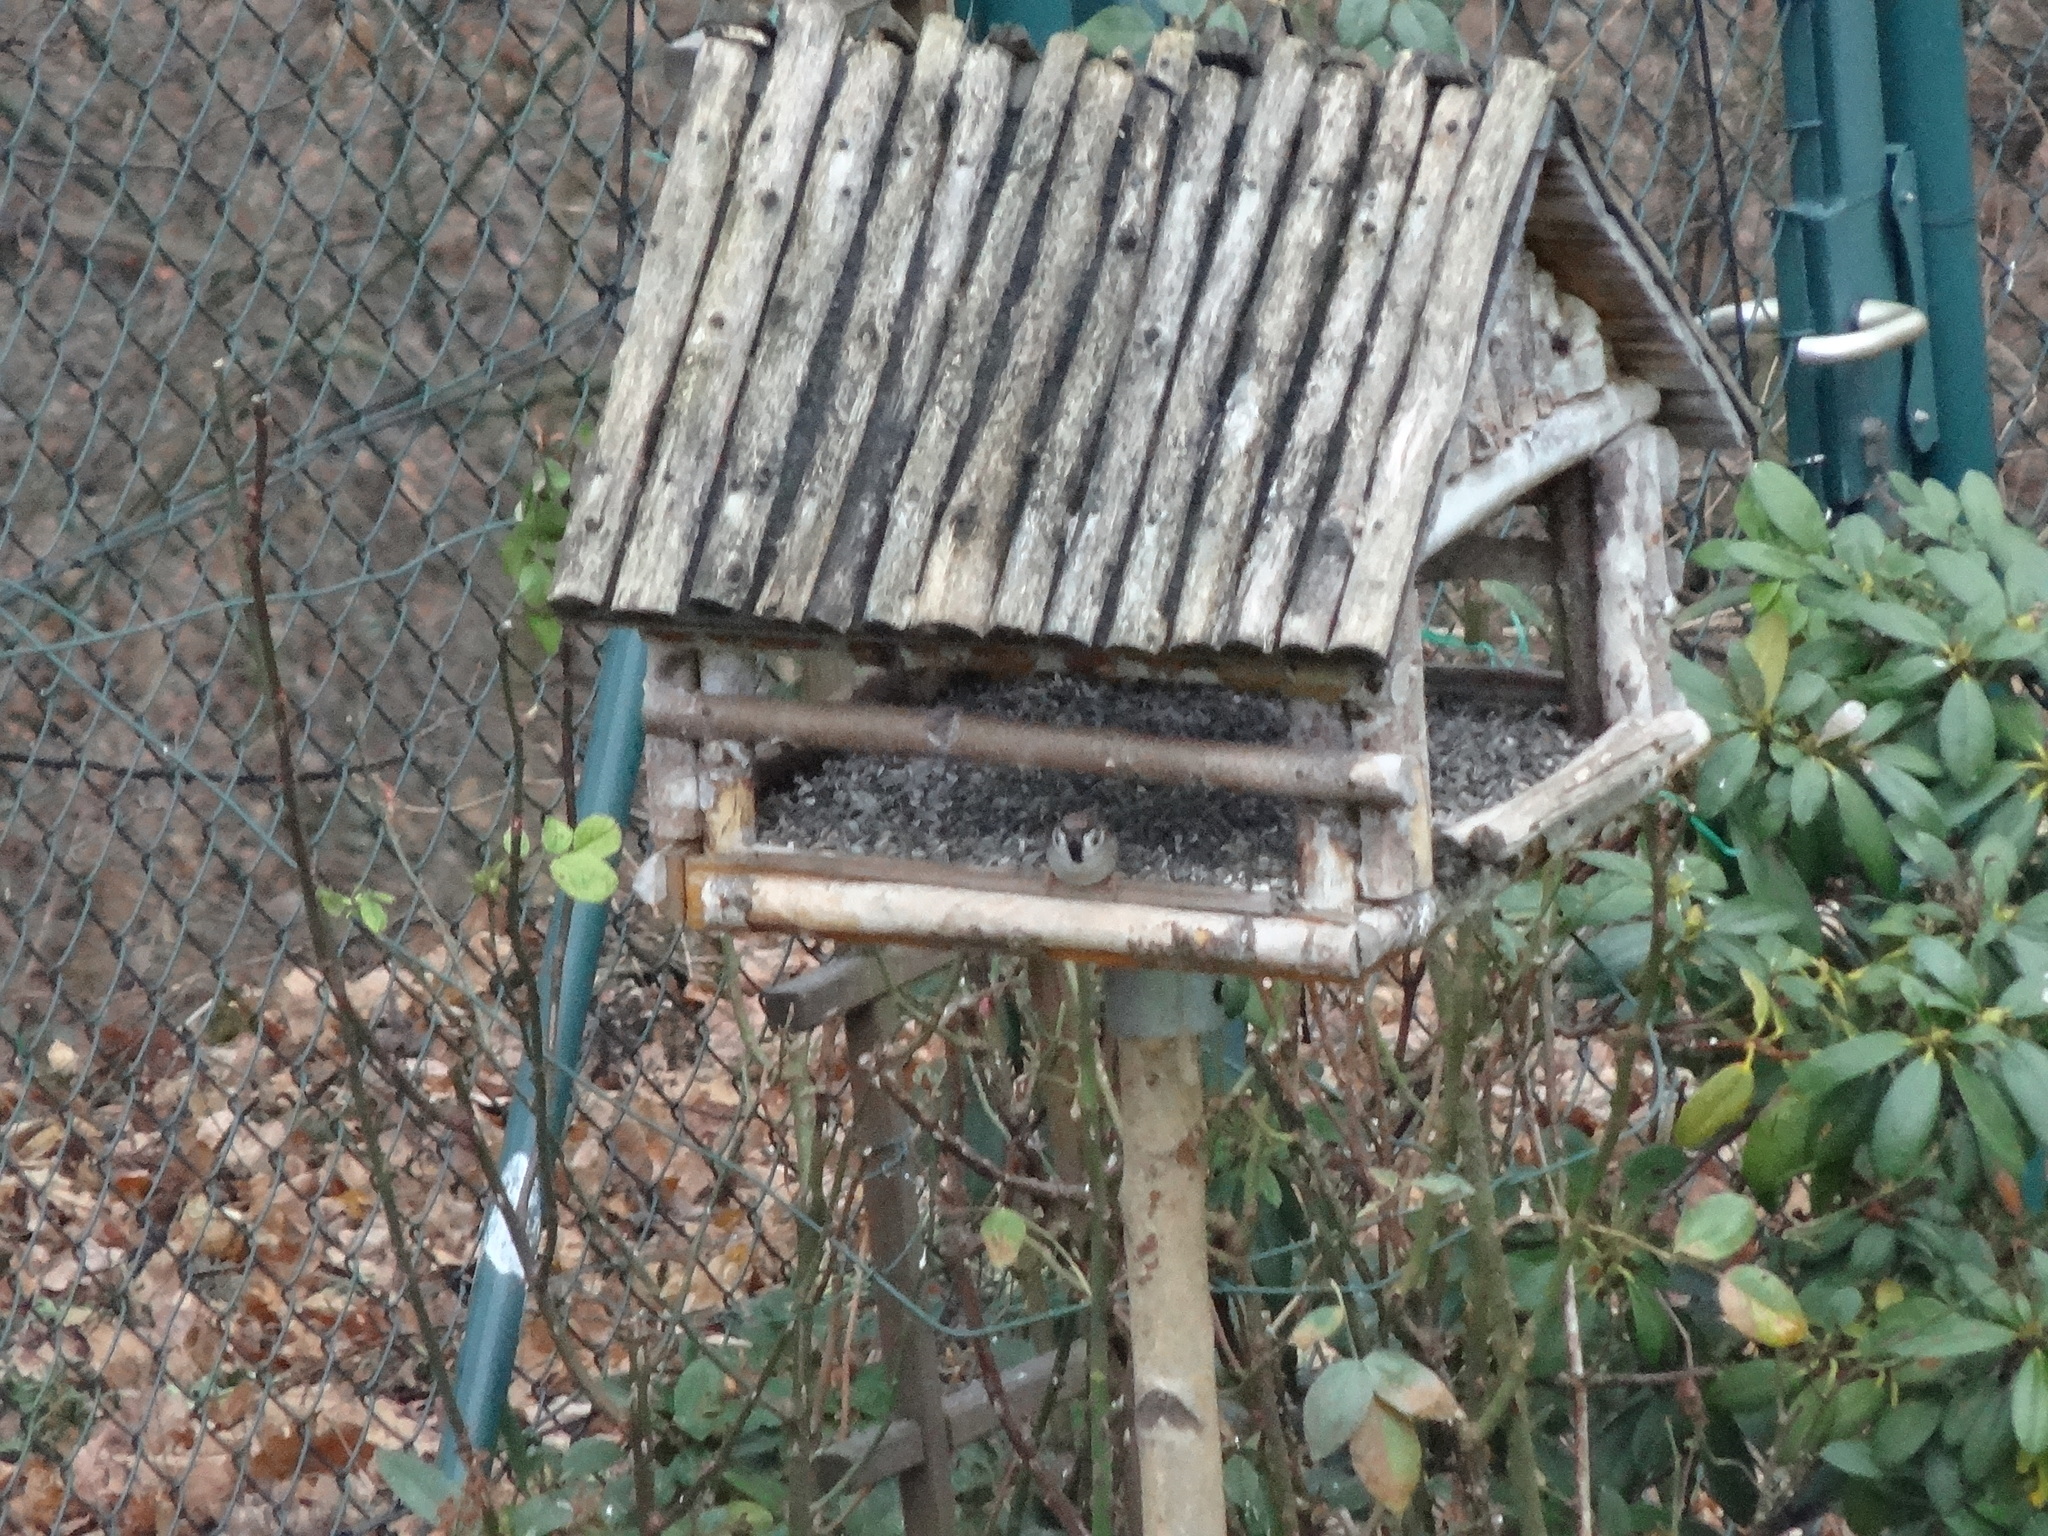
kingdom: Animalia
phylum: Chordata
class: Aves
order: Passeriformes
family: Passeridae
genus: Passer
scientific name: Passer montanus
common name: Eurasian tree sparrow
